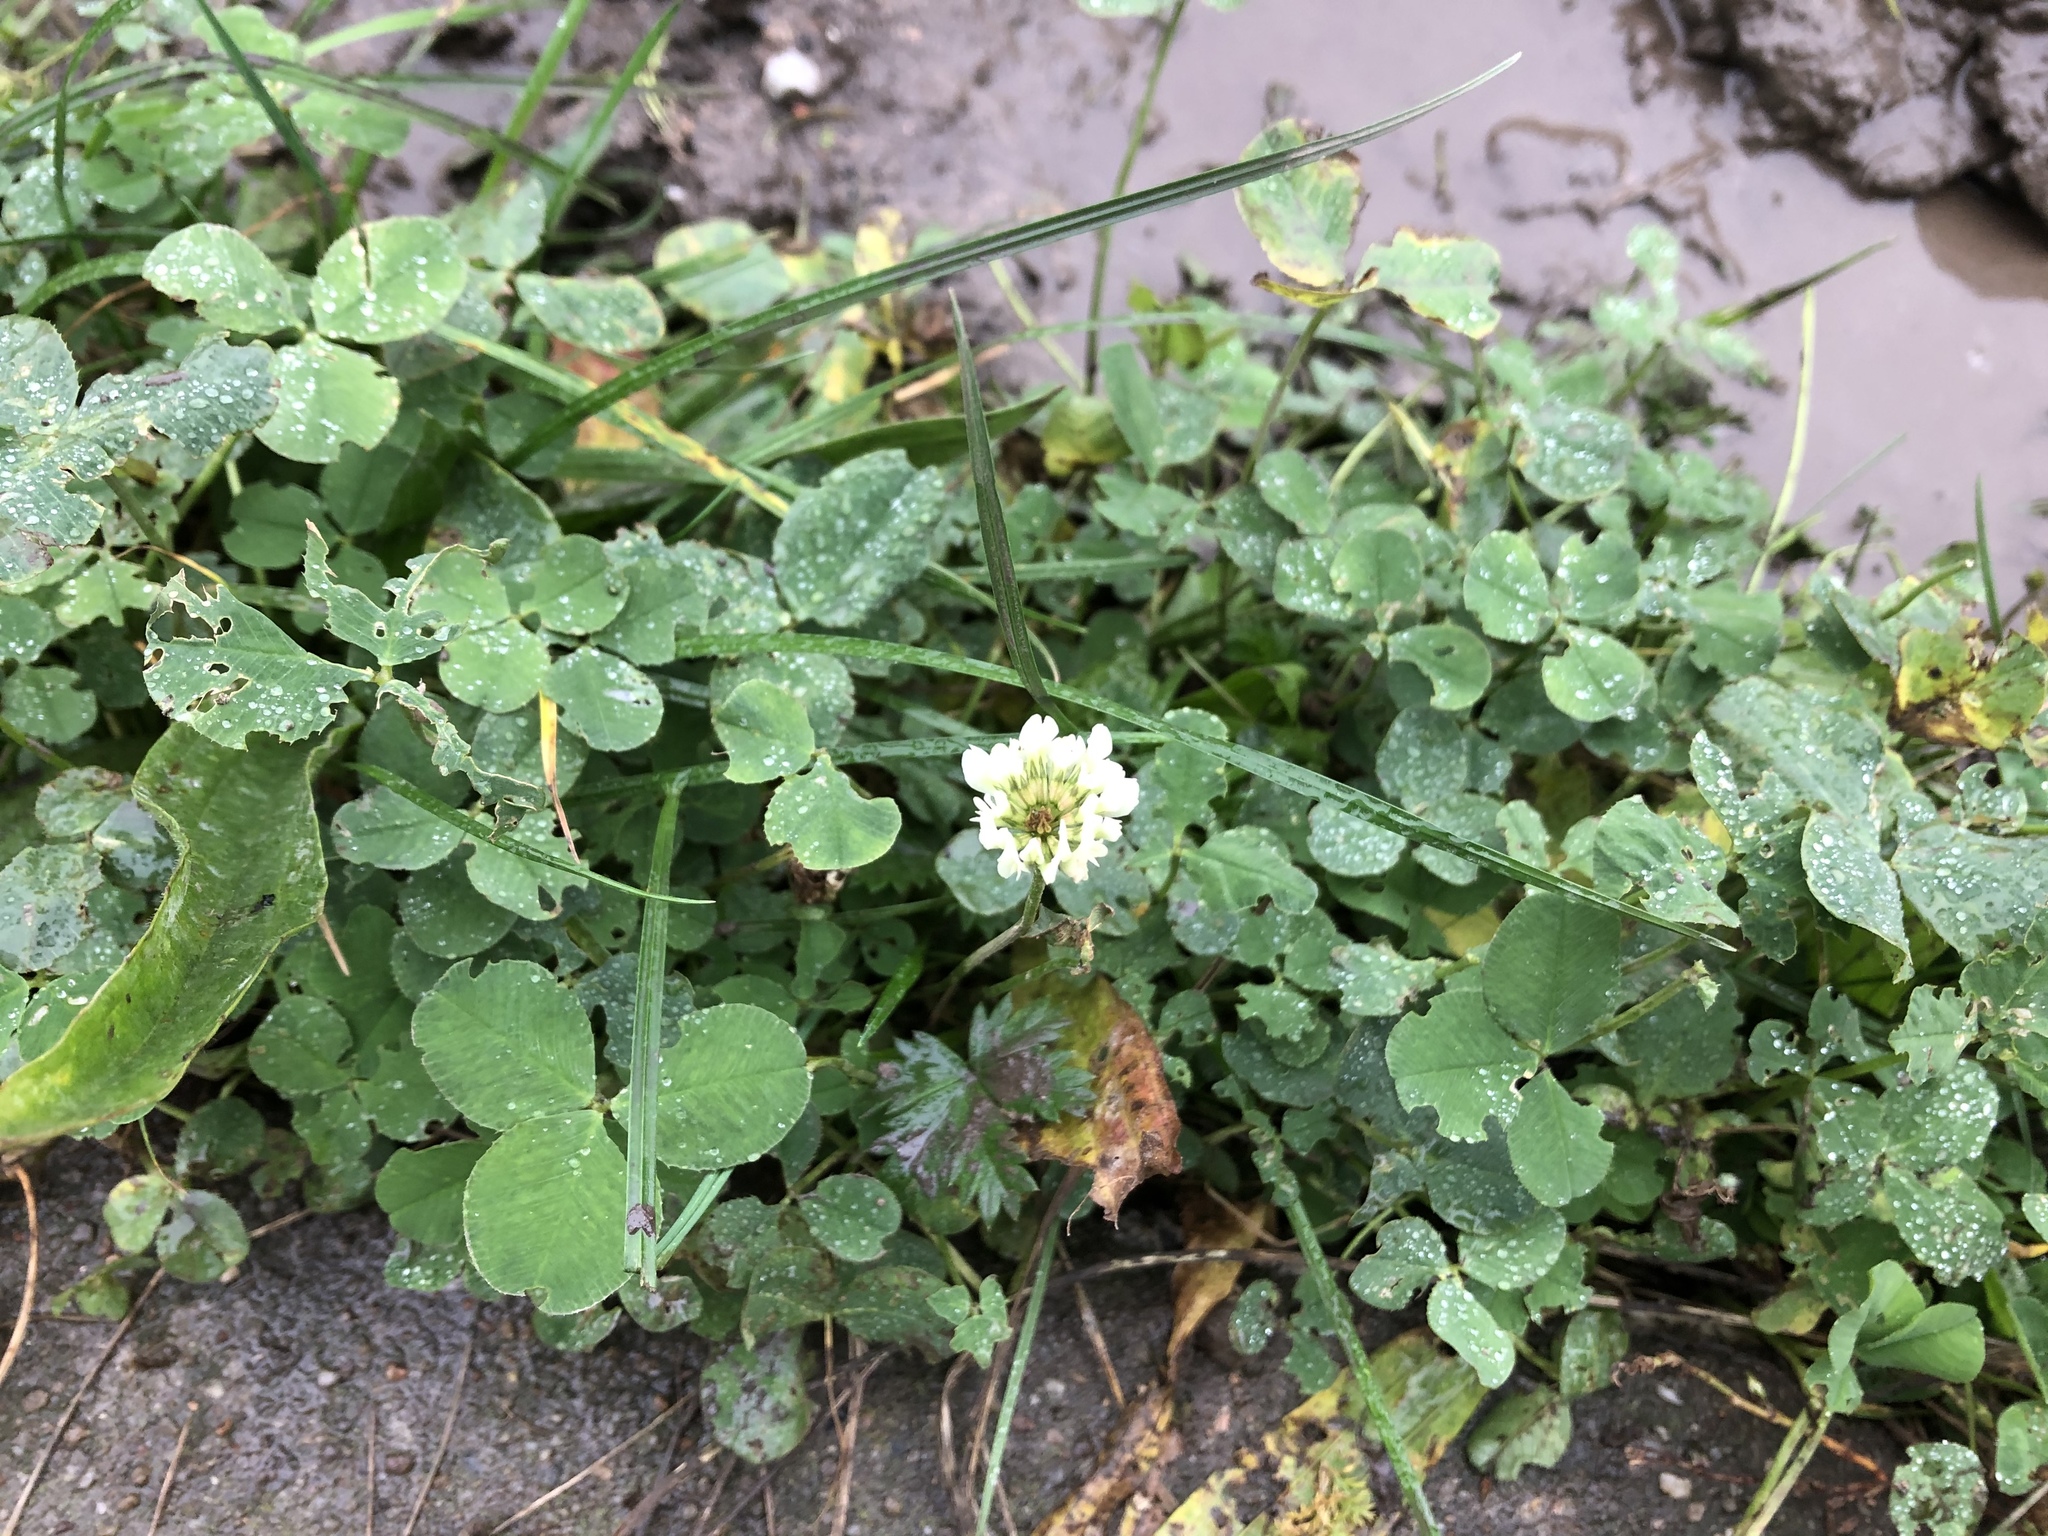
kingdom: Plantae
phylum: Tracheophyta
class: Magnoliopsida
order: Fabales
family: Fabaceae
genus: Trifolium
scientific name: Trifolium repens
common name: White clover
